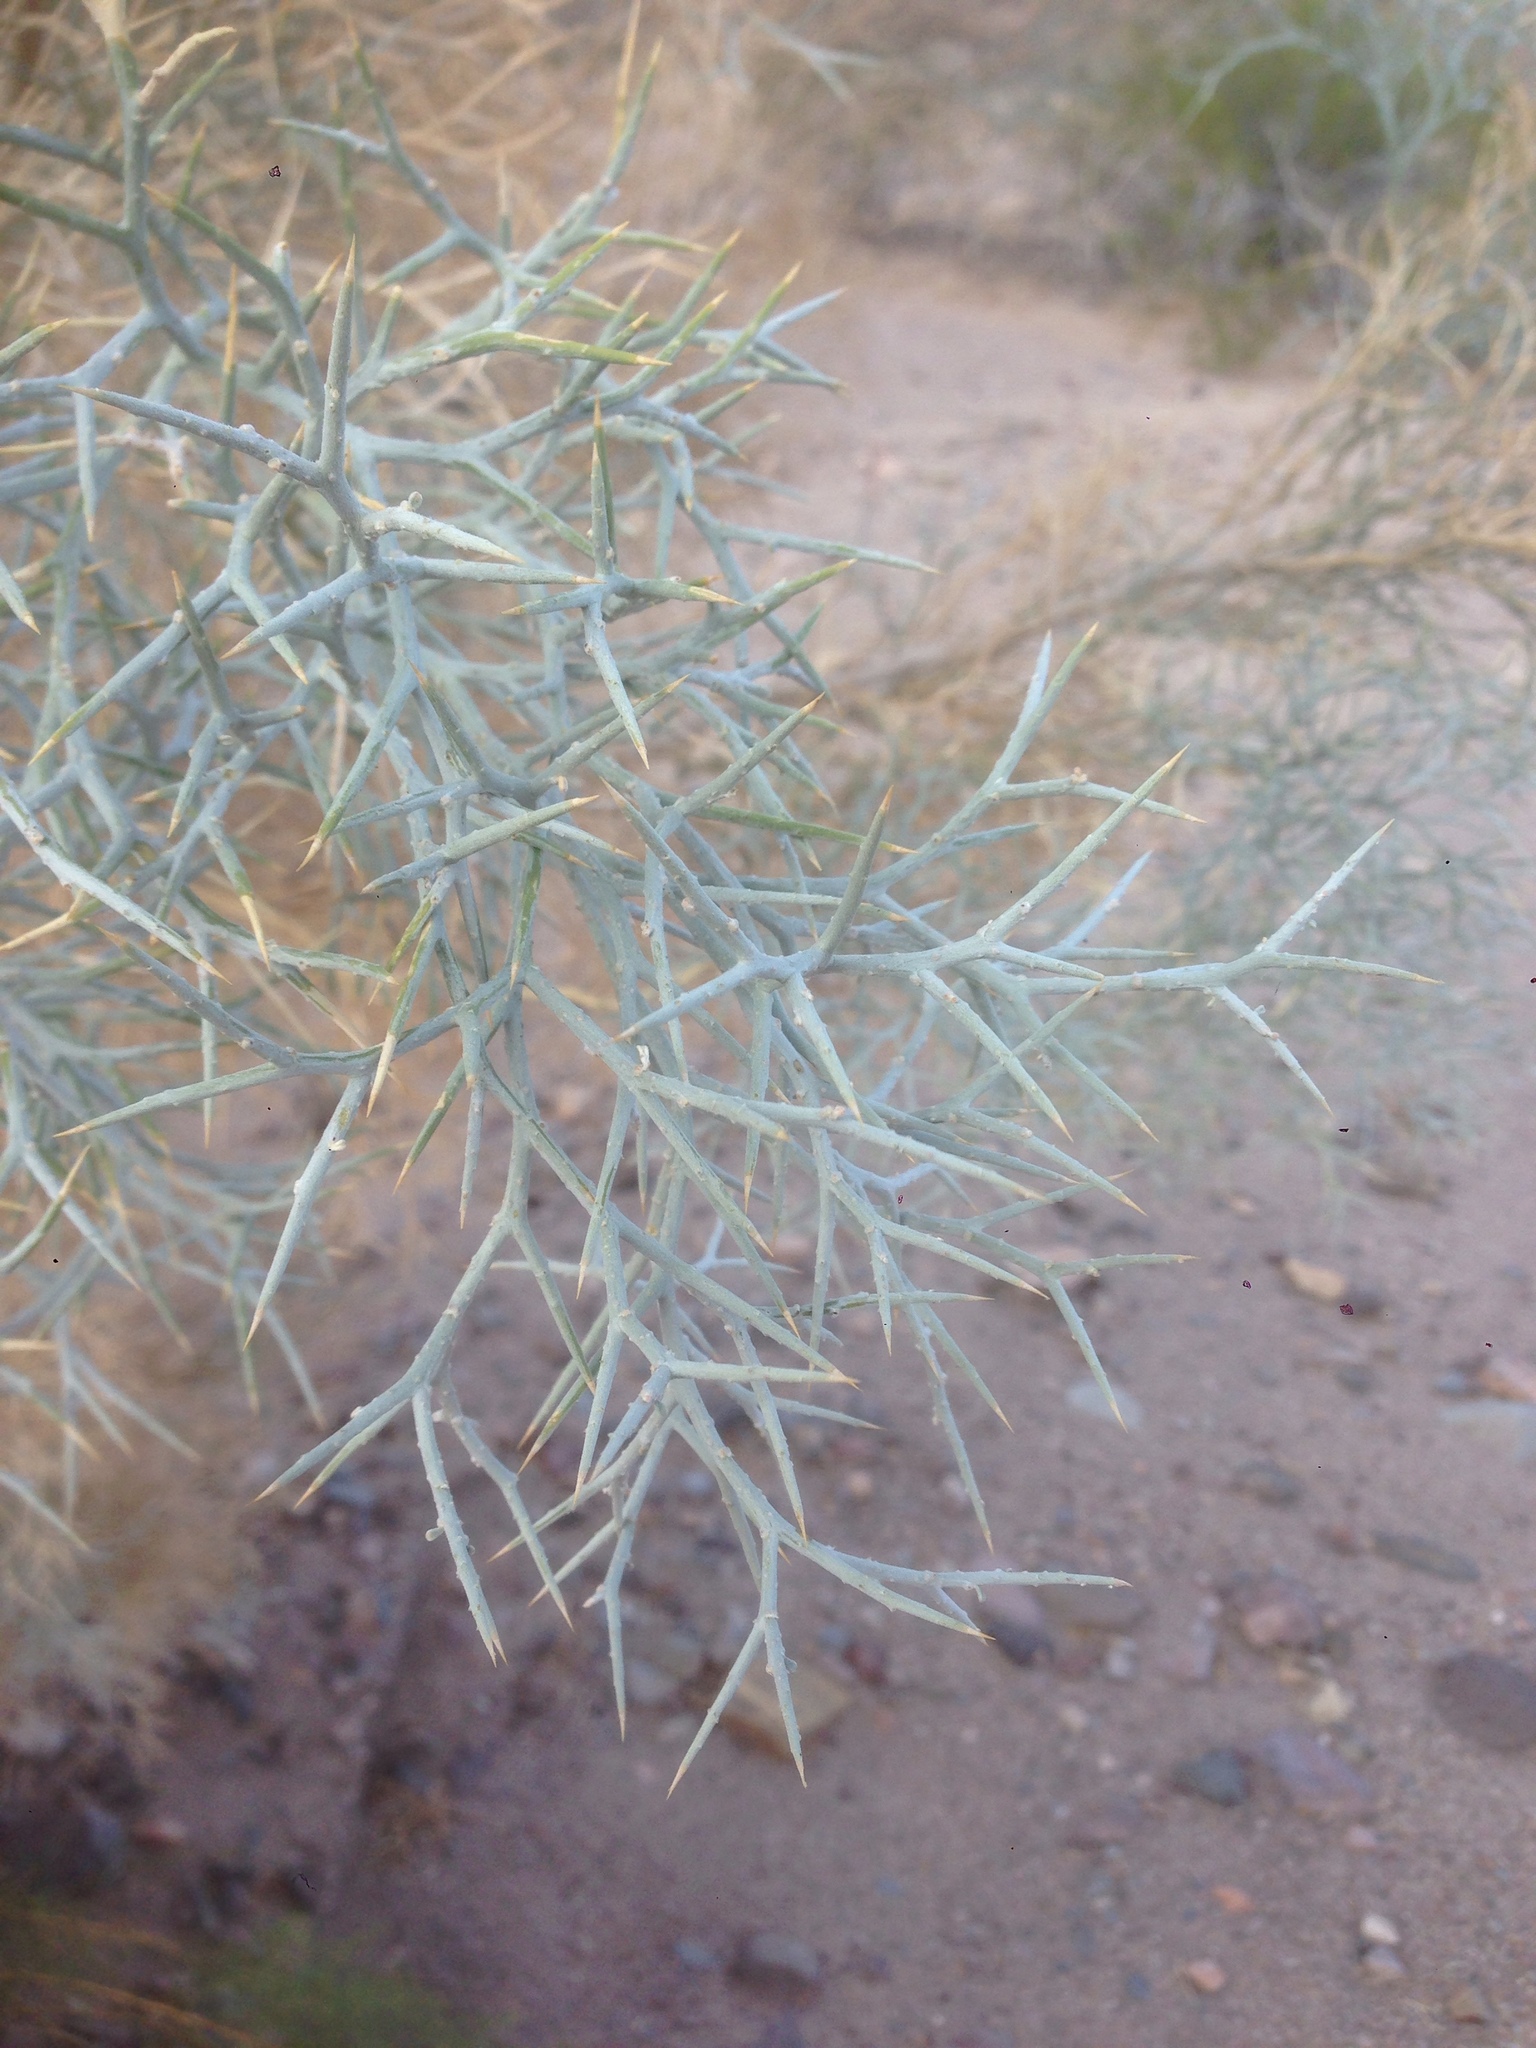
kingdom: Plantae
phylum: Tracheophyta
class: Magnoliopsida
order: Fabales
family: Fabaceae
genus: Psorothamnus
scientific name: Psorothamnus spinosus
